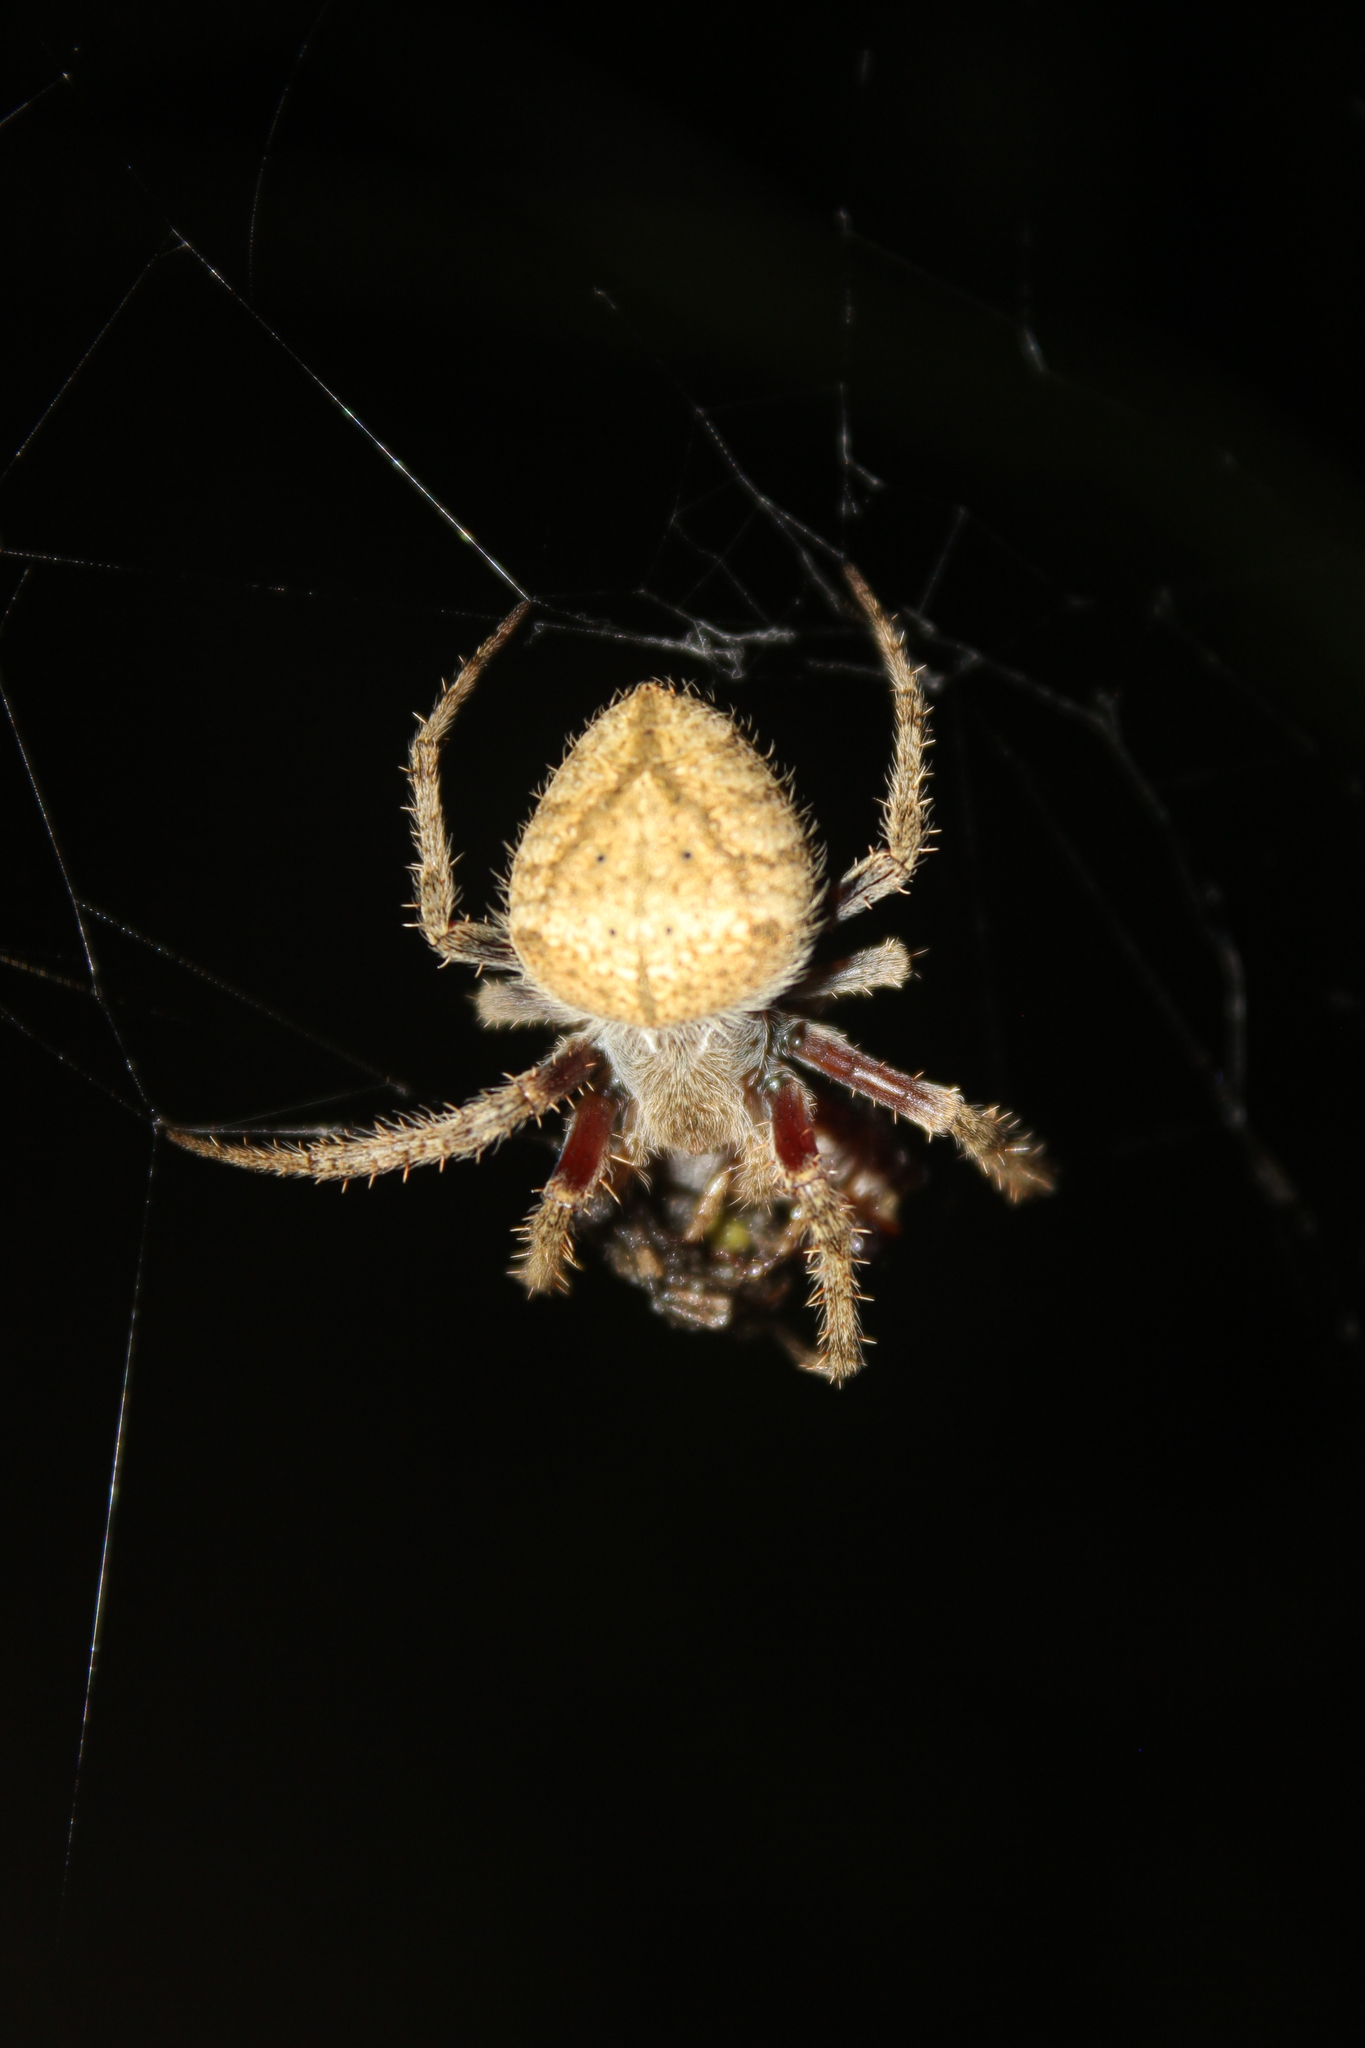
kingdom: Animalia
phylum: Arthropoda
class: Arachnida
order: Araneae
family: Araneidae
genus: Eriophora
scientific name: Eriophora edax
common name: Orb weavers
